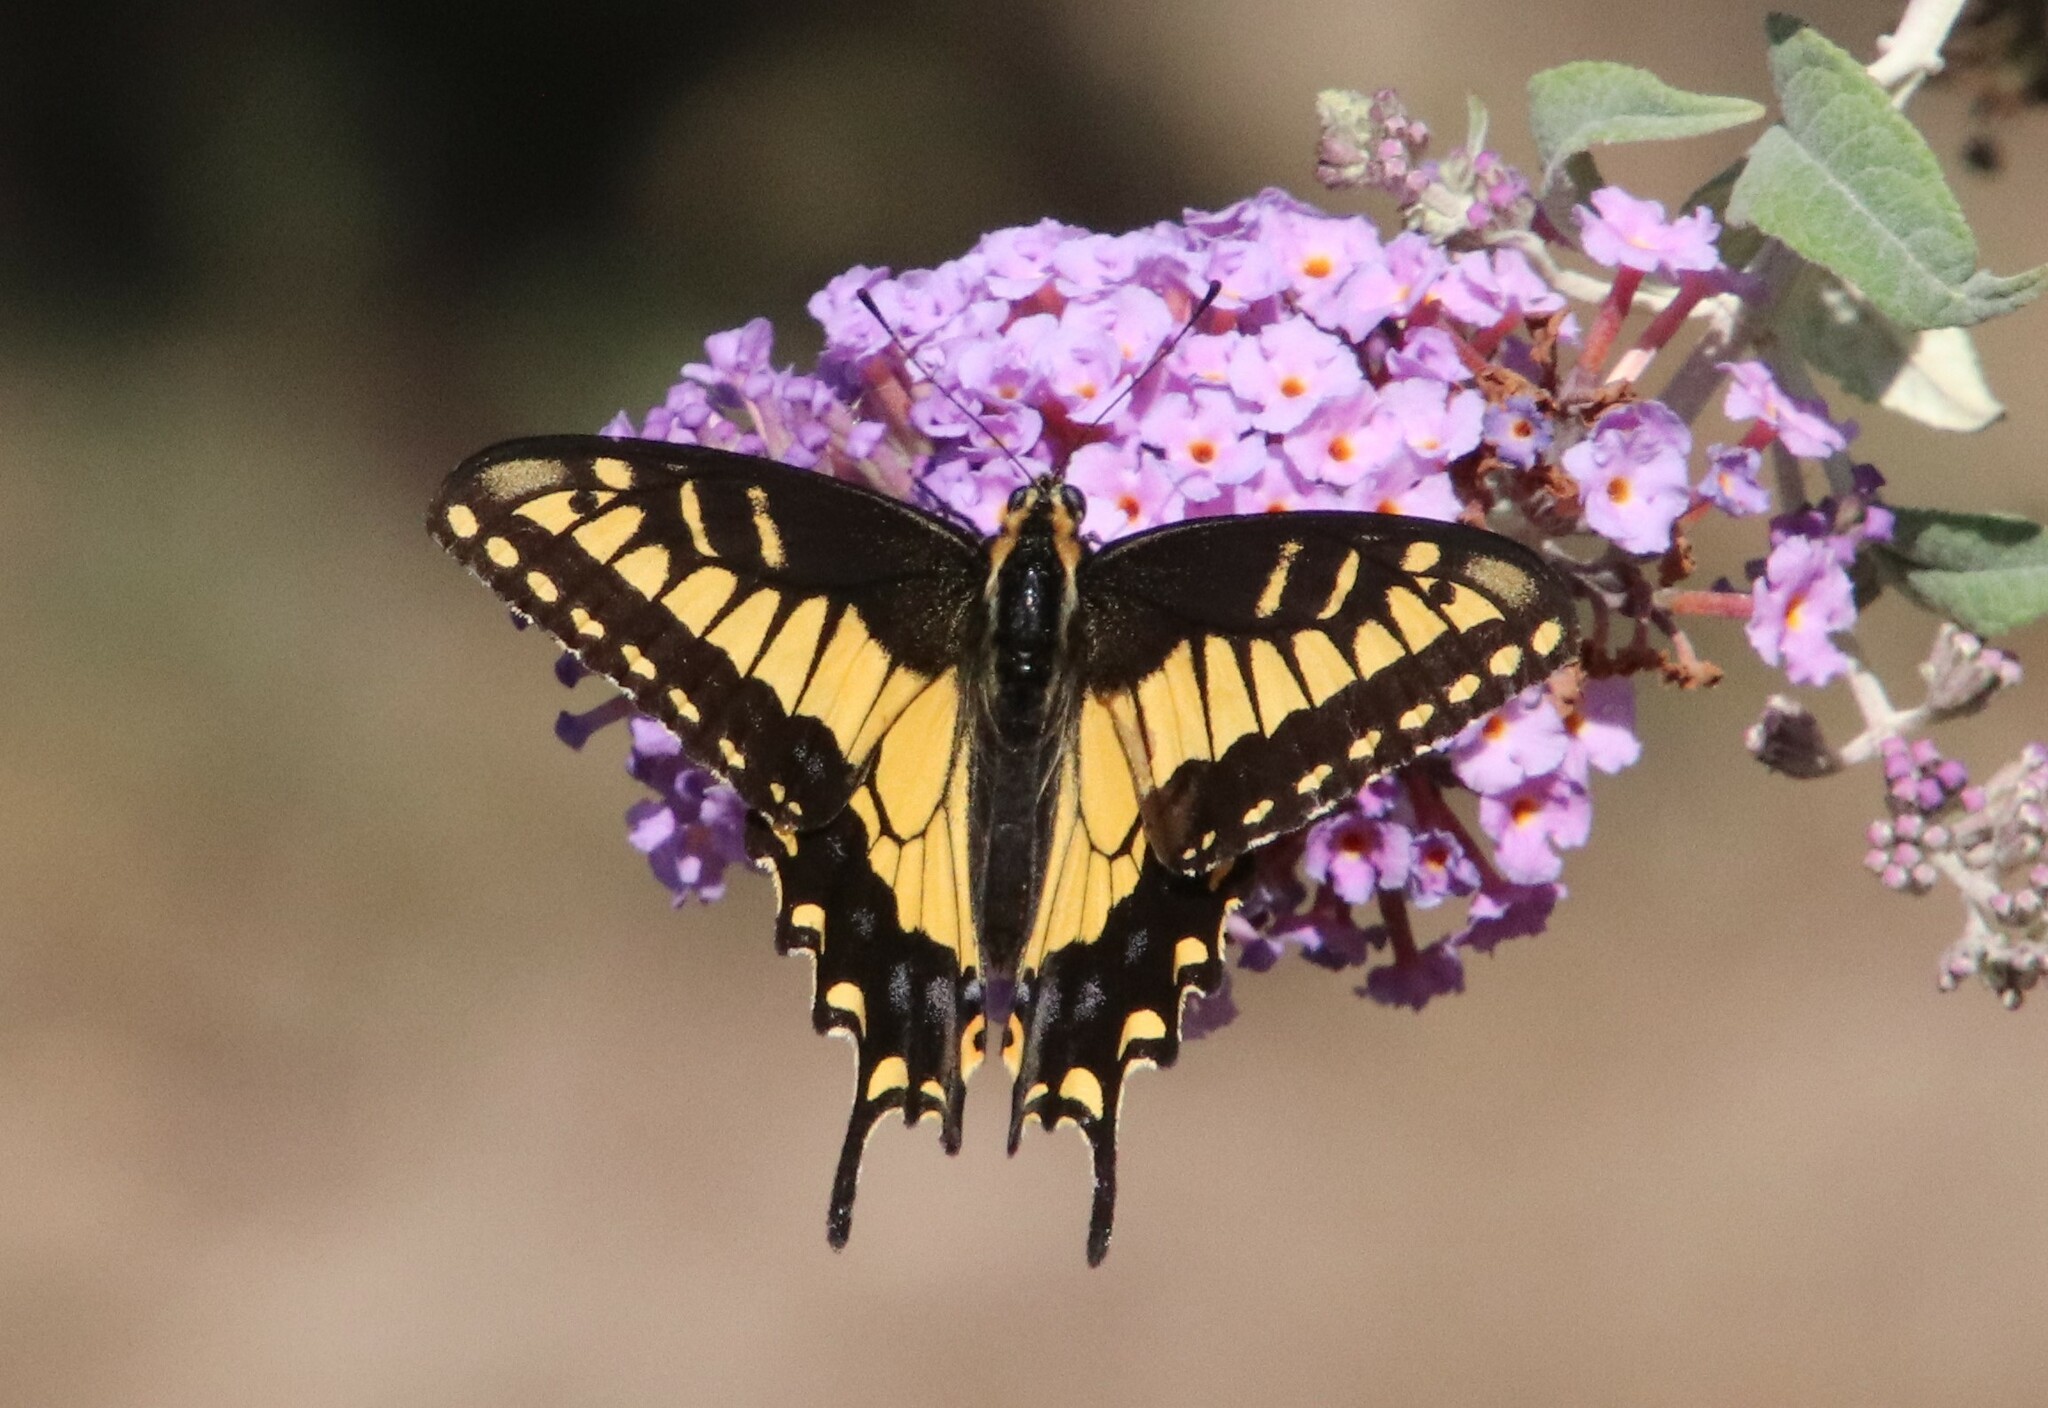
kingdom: Animalia
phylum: Arthropoda
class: Insecta
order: Lepidoptera
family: Papilionidae
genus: Papilio
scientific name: Papilio zelicaon
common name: Anise swallowtail
